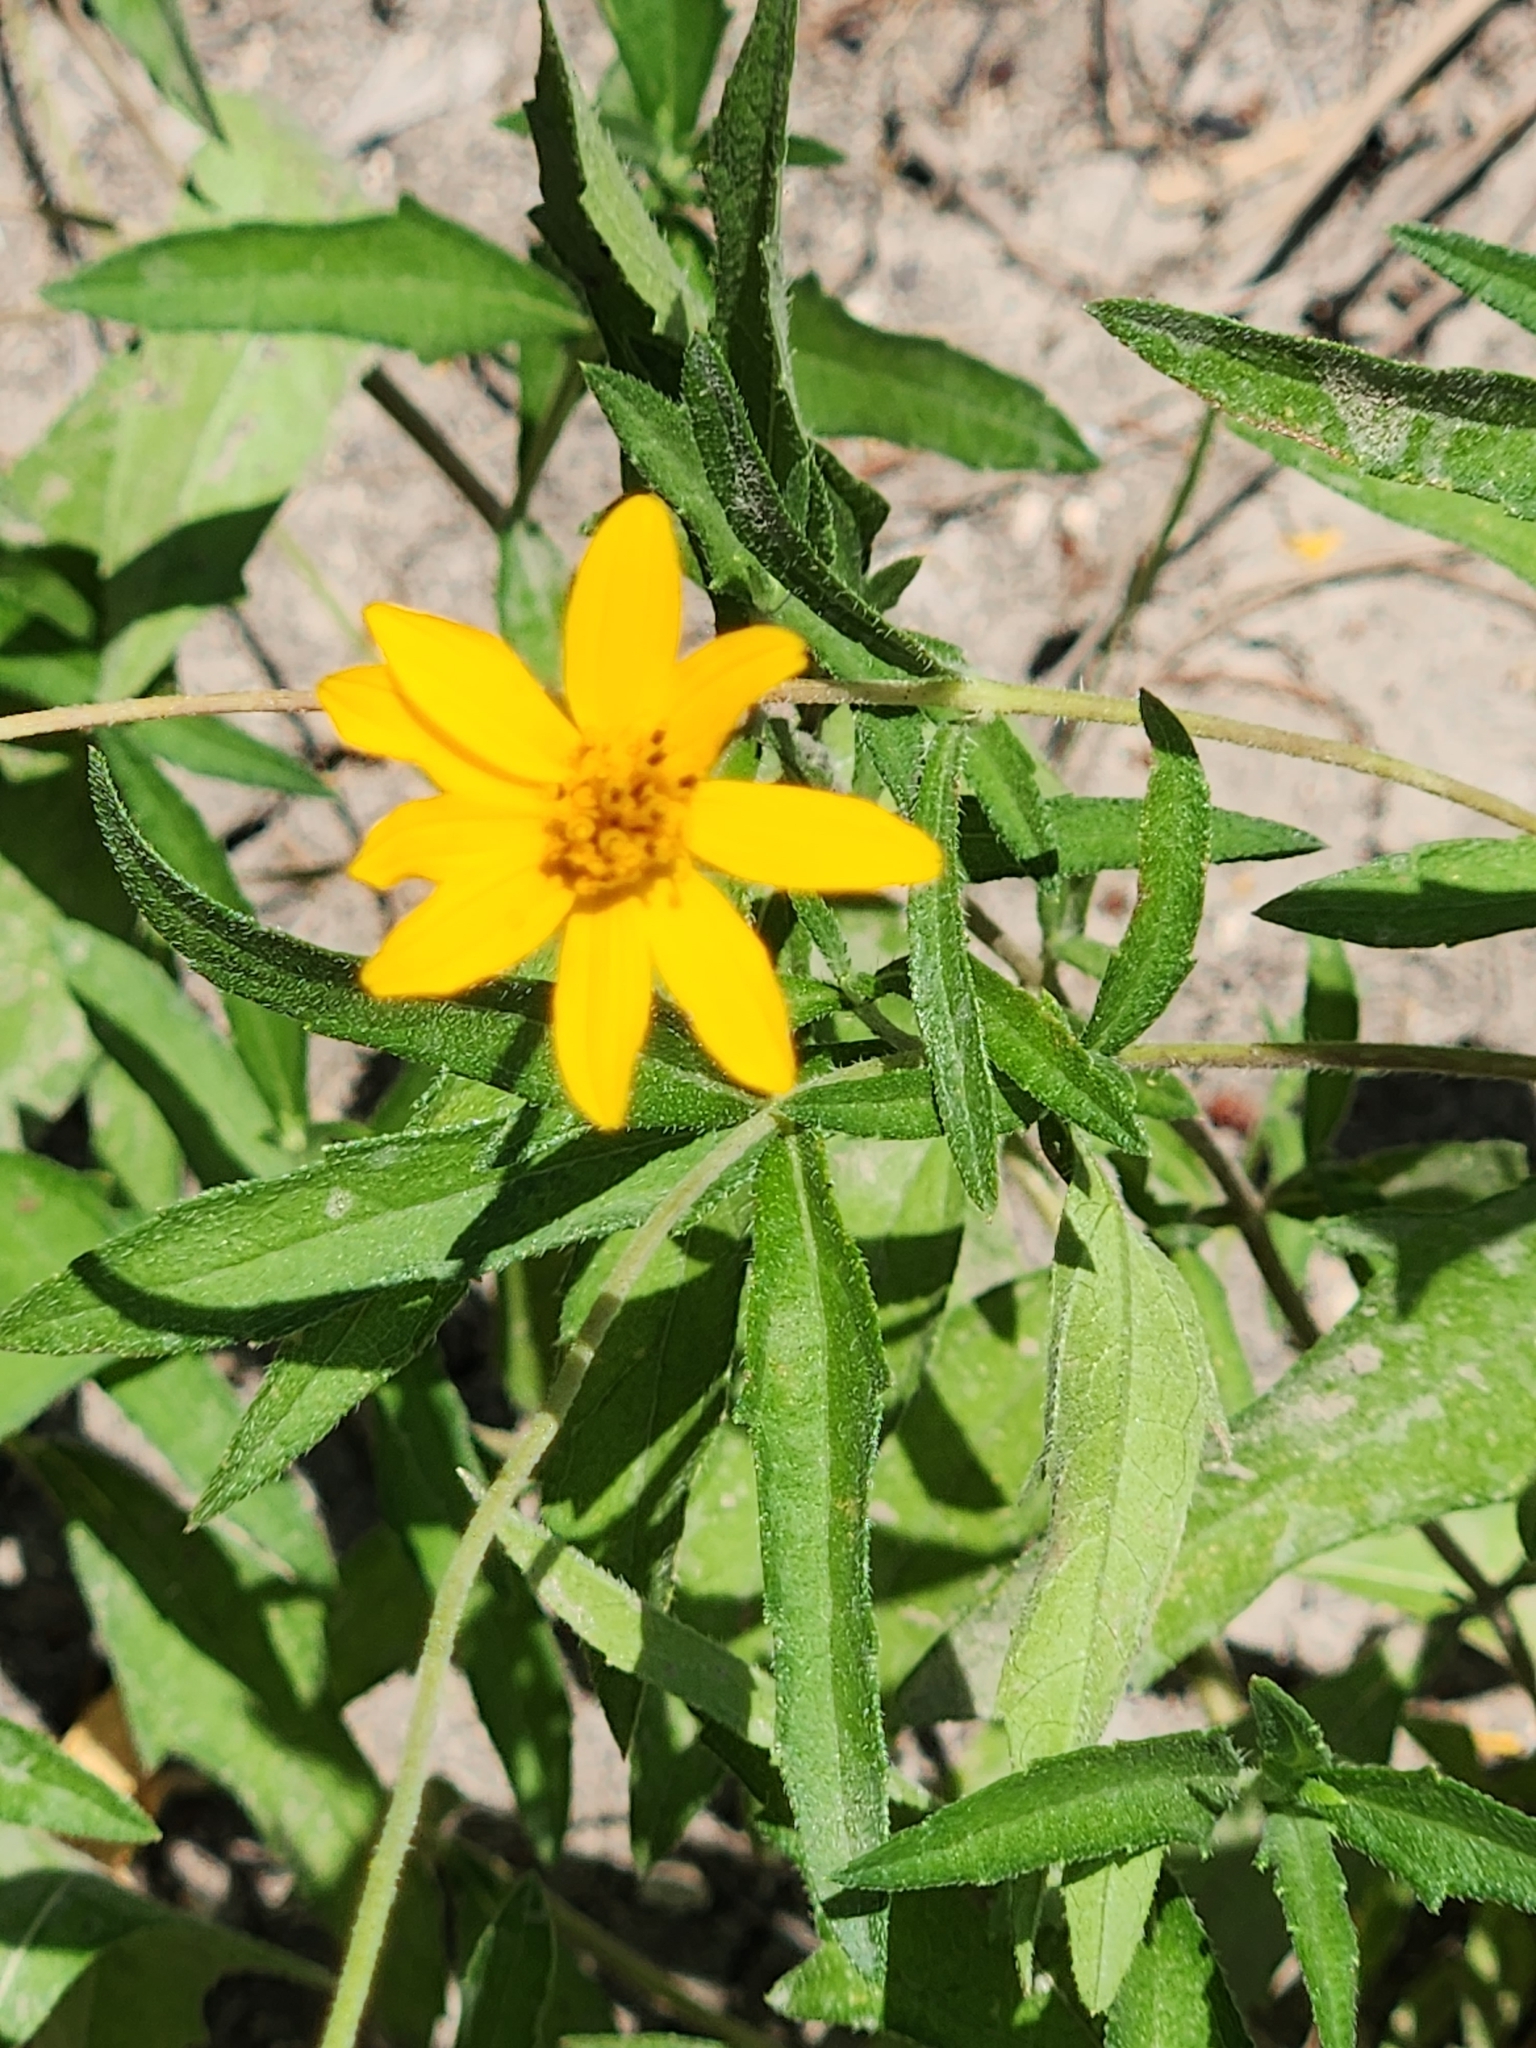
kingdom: Plantae
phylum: Tracheophyta
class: Magnoliopsida
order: Asterales
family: Asteraceae
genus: Wedelia
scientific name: Wedelia acapulcensis
